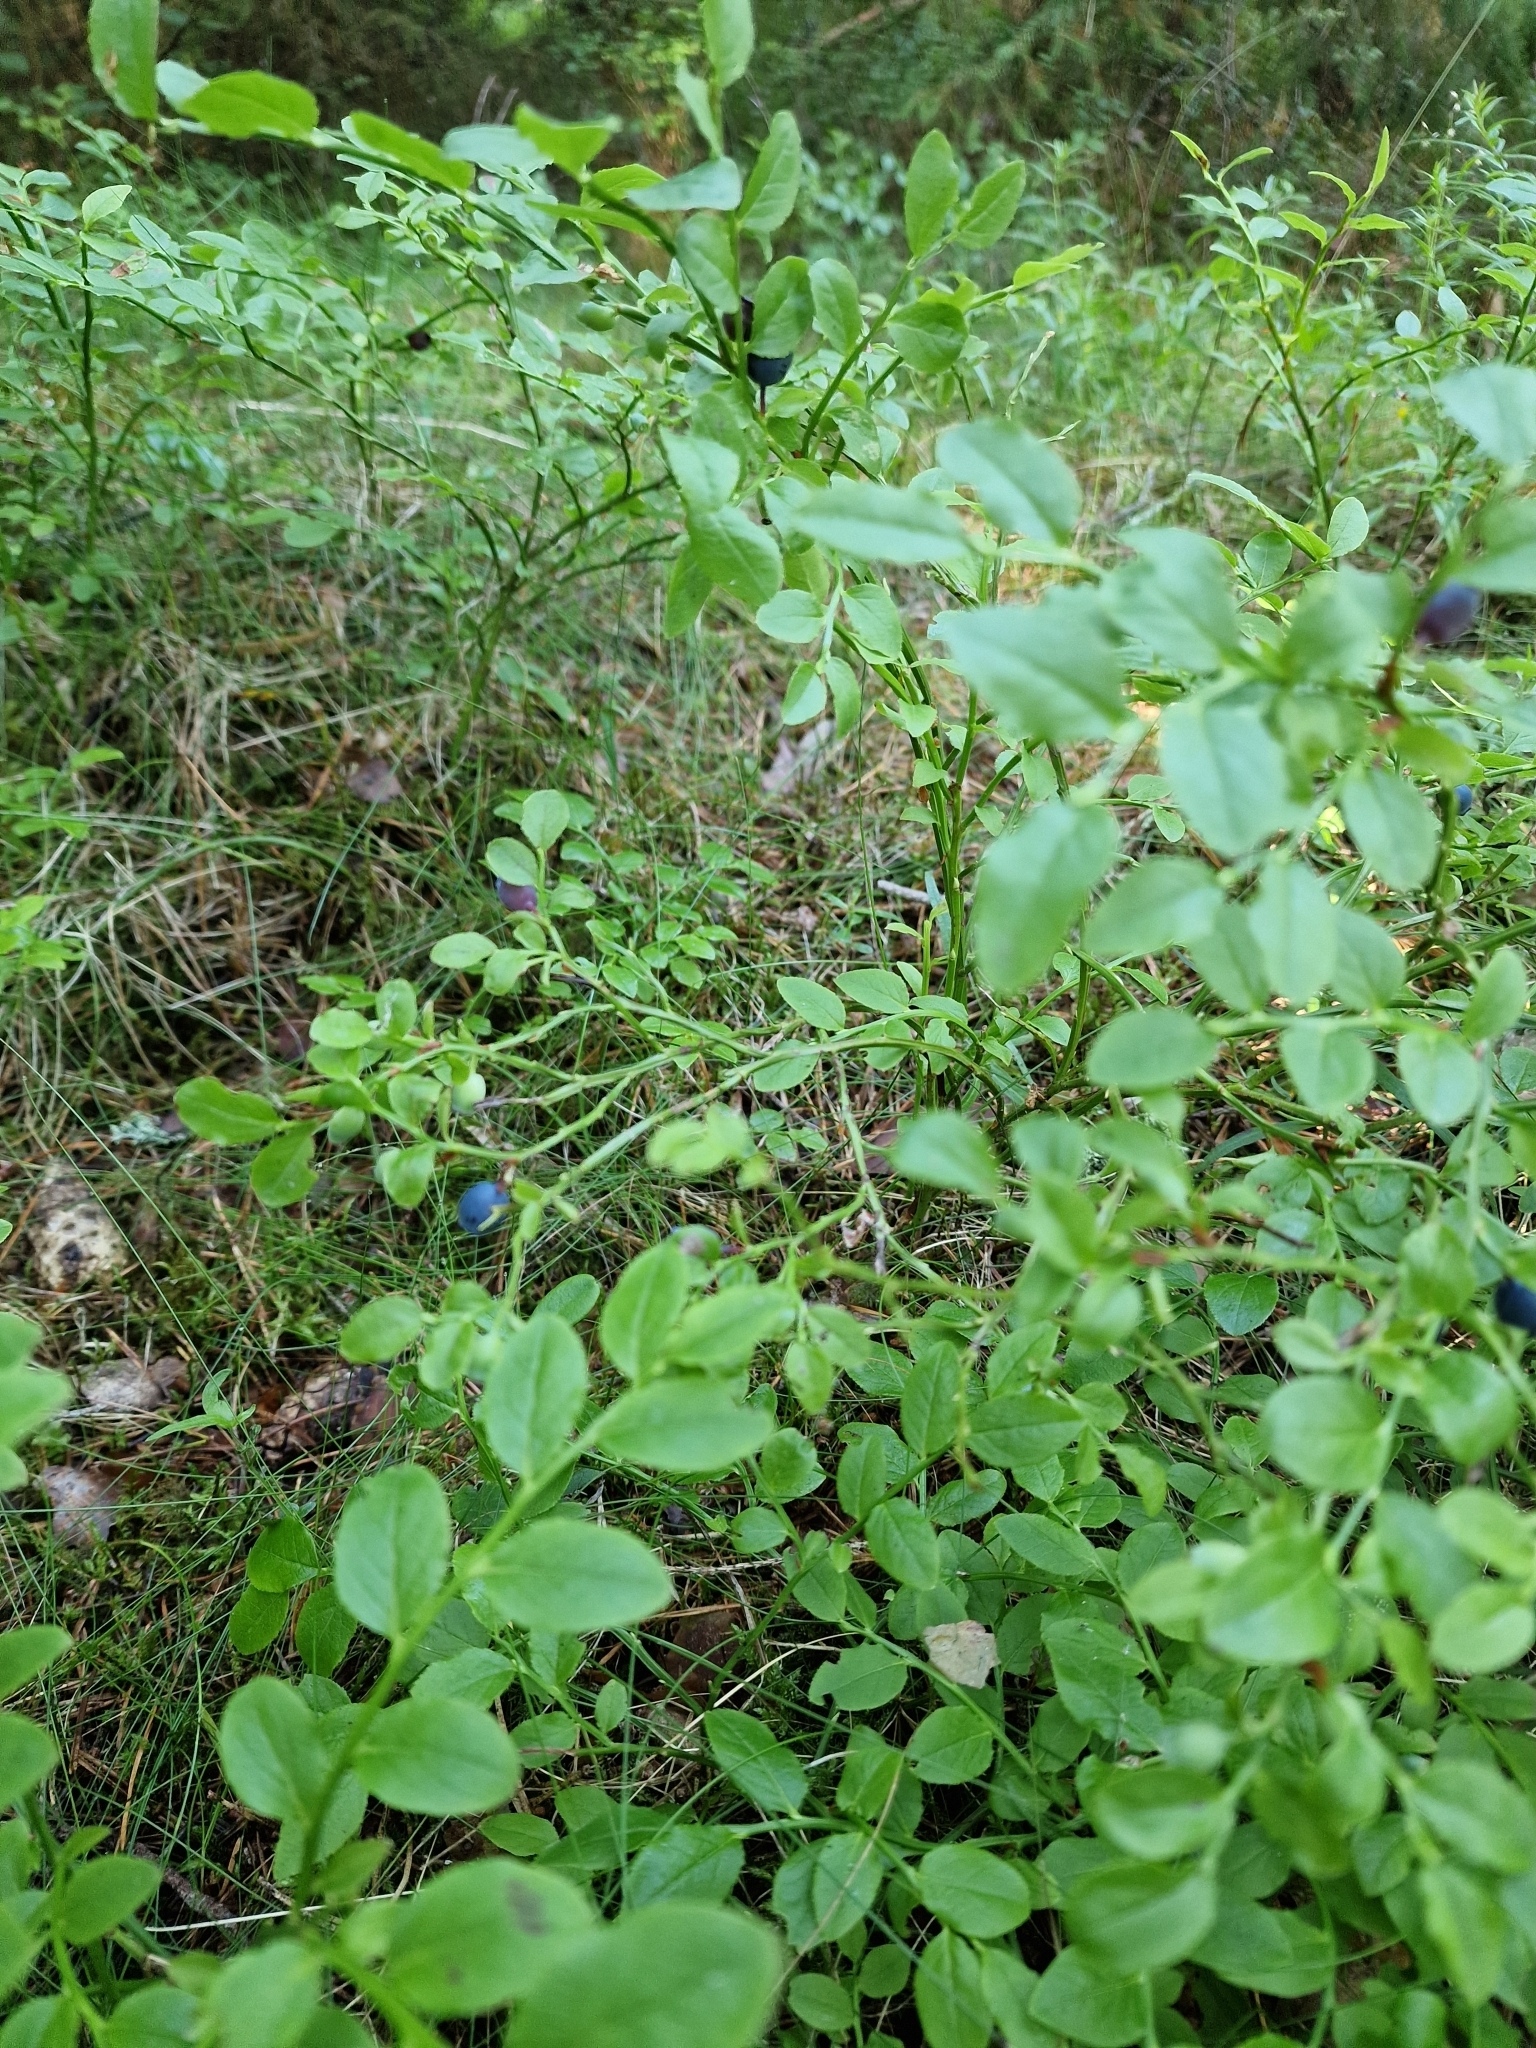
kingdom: Plantae
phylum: Tracheophyta
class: Magnoliopsida
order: Ericales
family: Ericaceae
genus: Vaccinium
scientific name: Vaccinium myrtillus
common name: Bilberry
